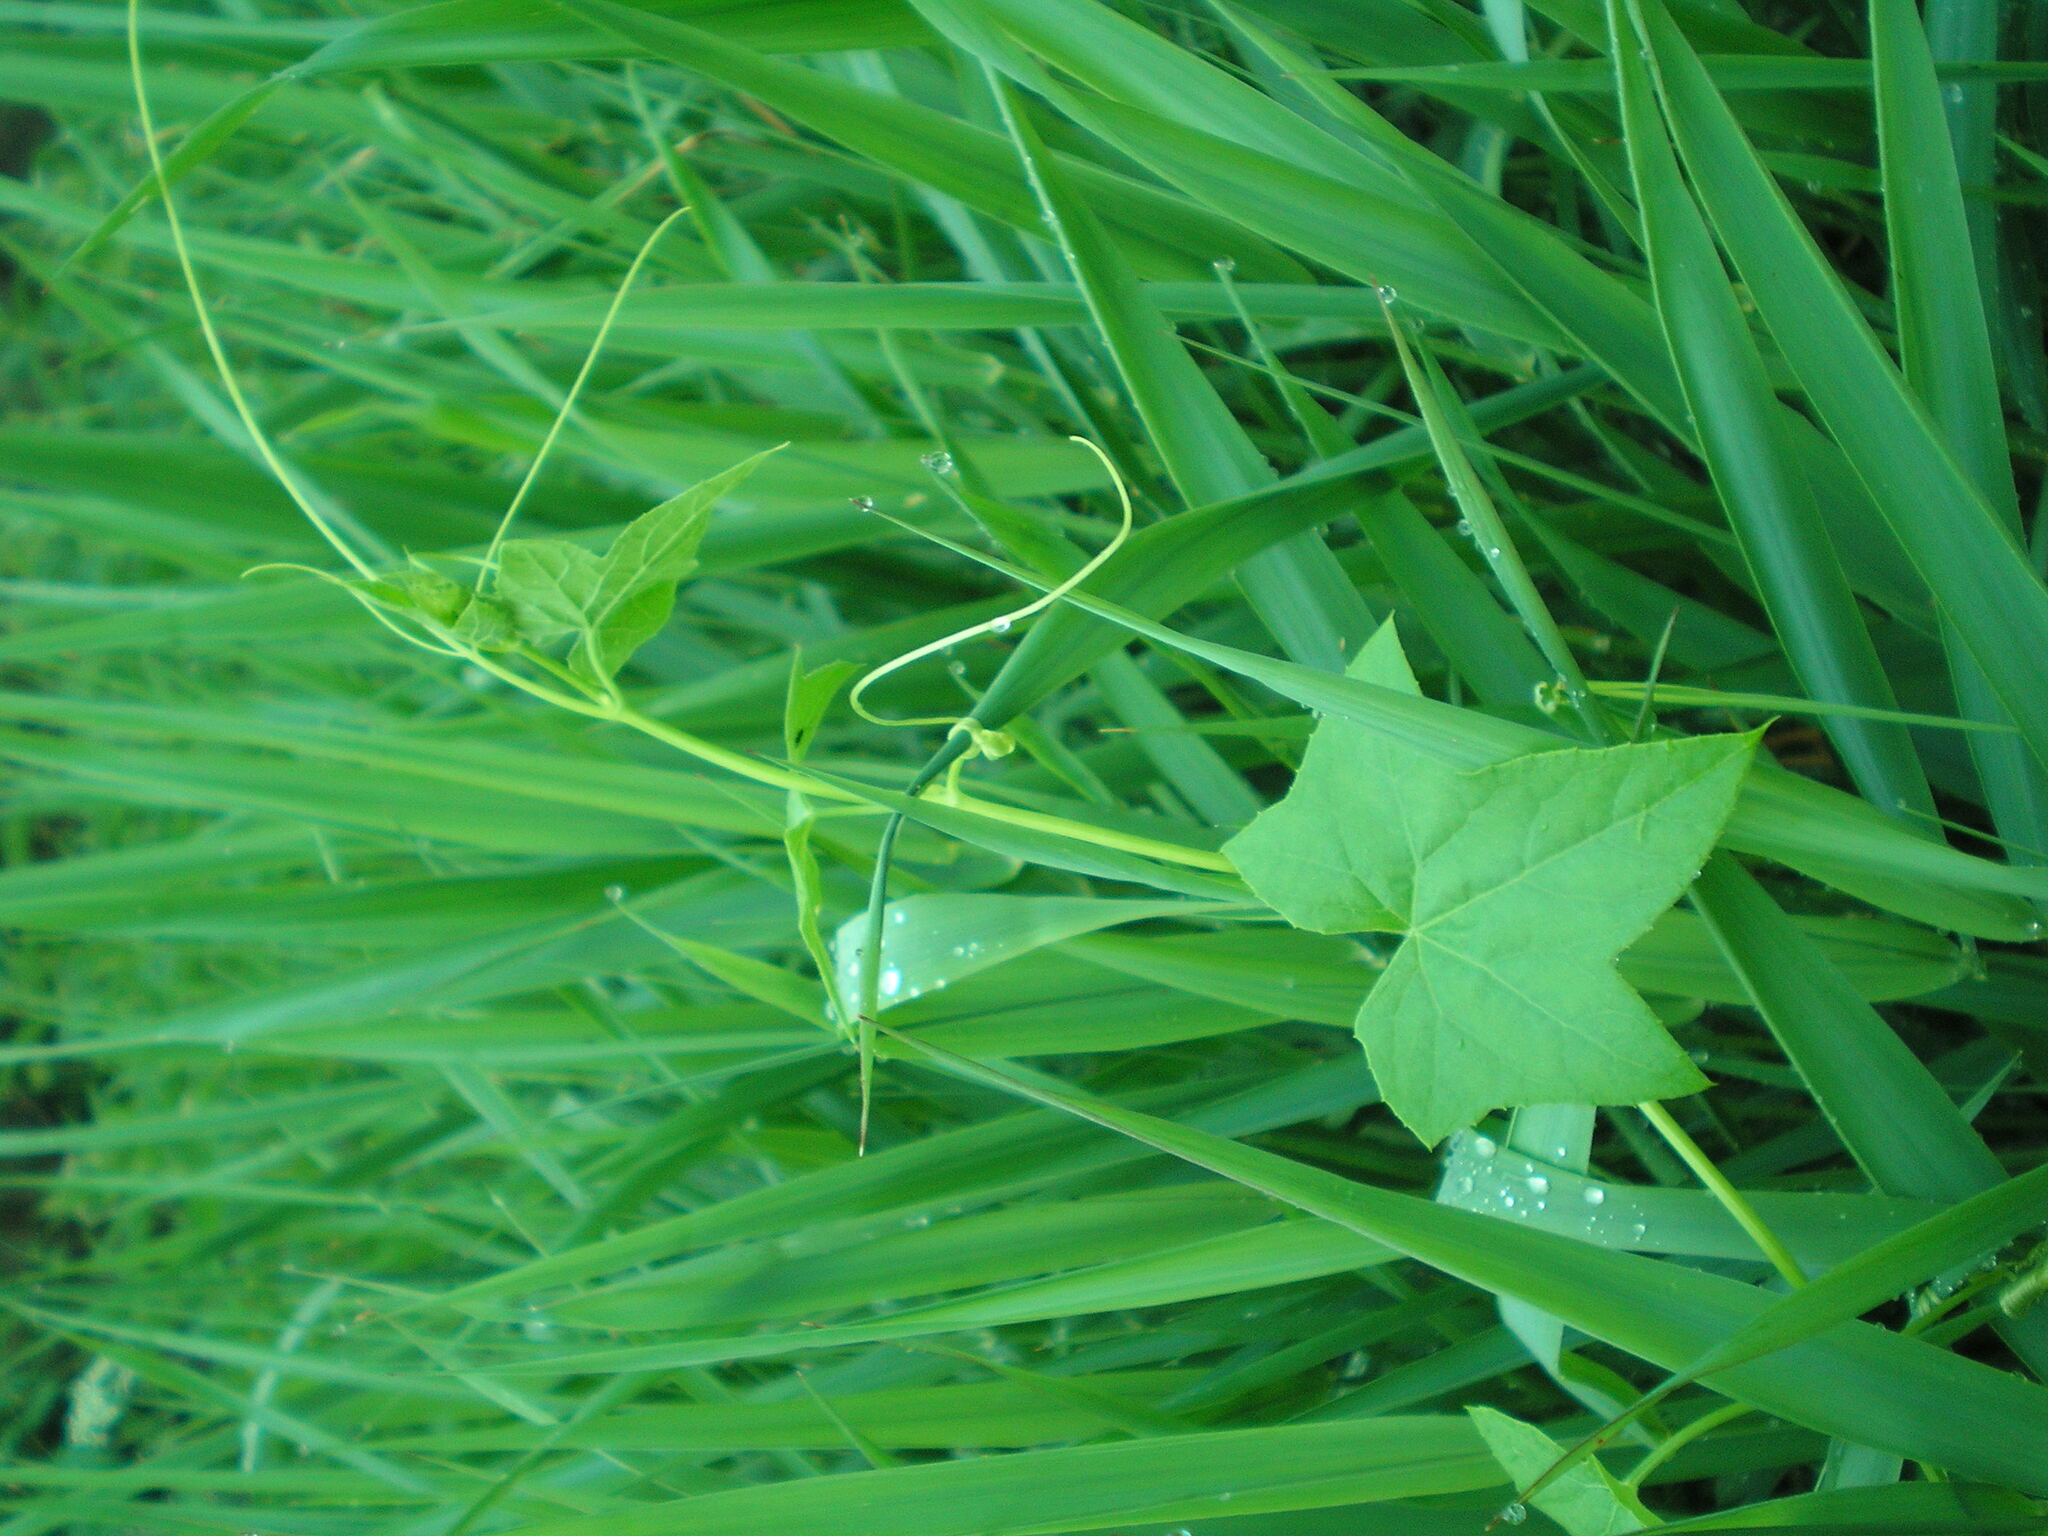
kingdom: Plantae
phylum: Tracheophyta
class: Magnoliopsida
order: Cucurbitales
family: Cucurbitaceae
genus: Echinocystis
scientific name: Echinocystis lobata
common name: Wild cucumber
